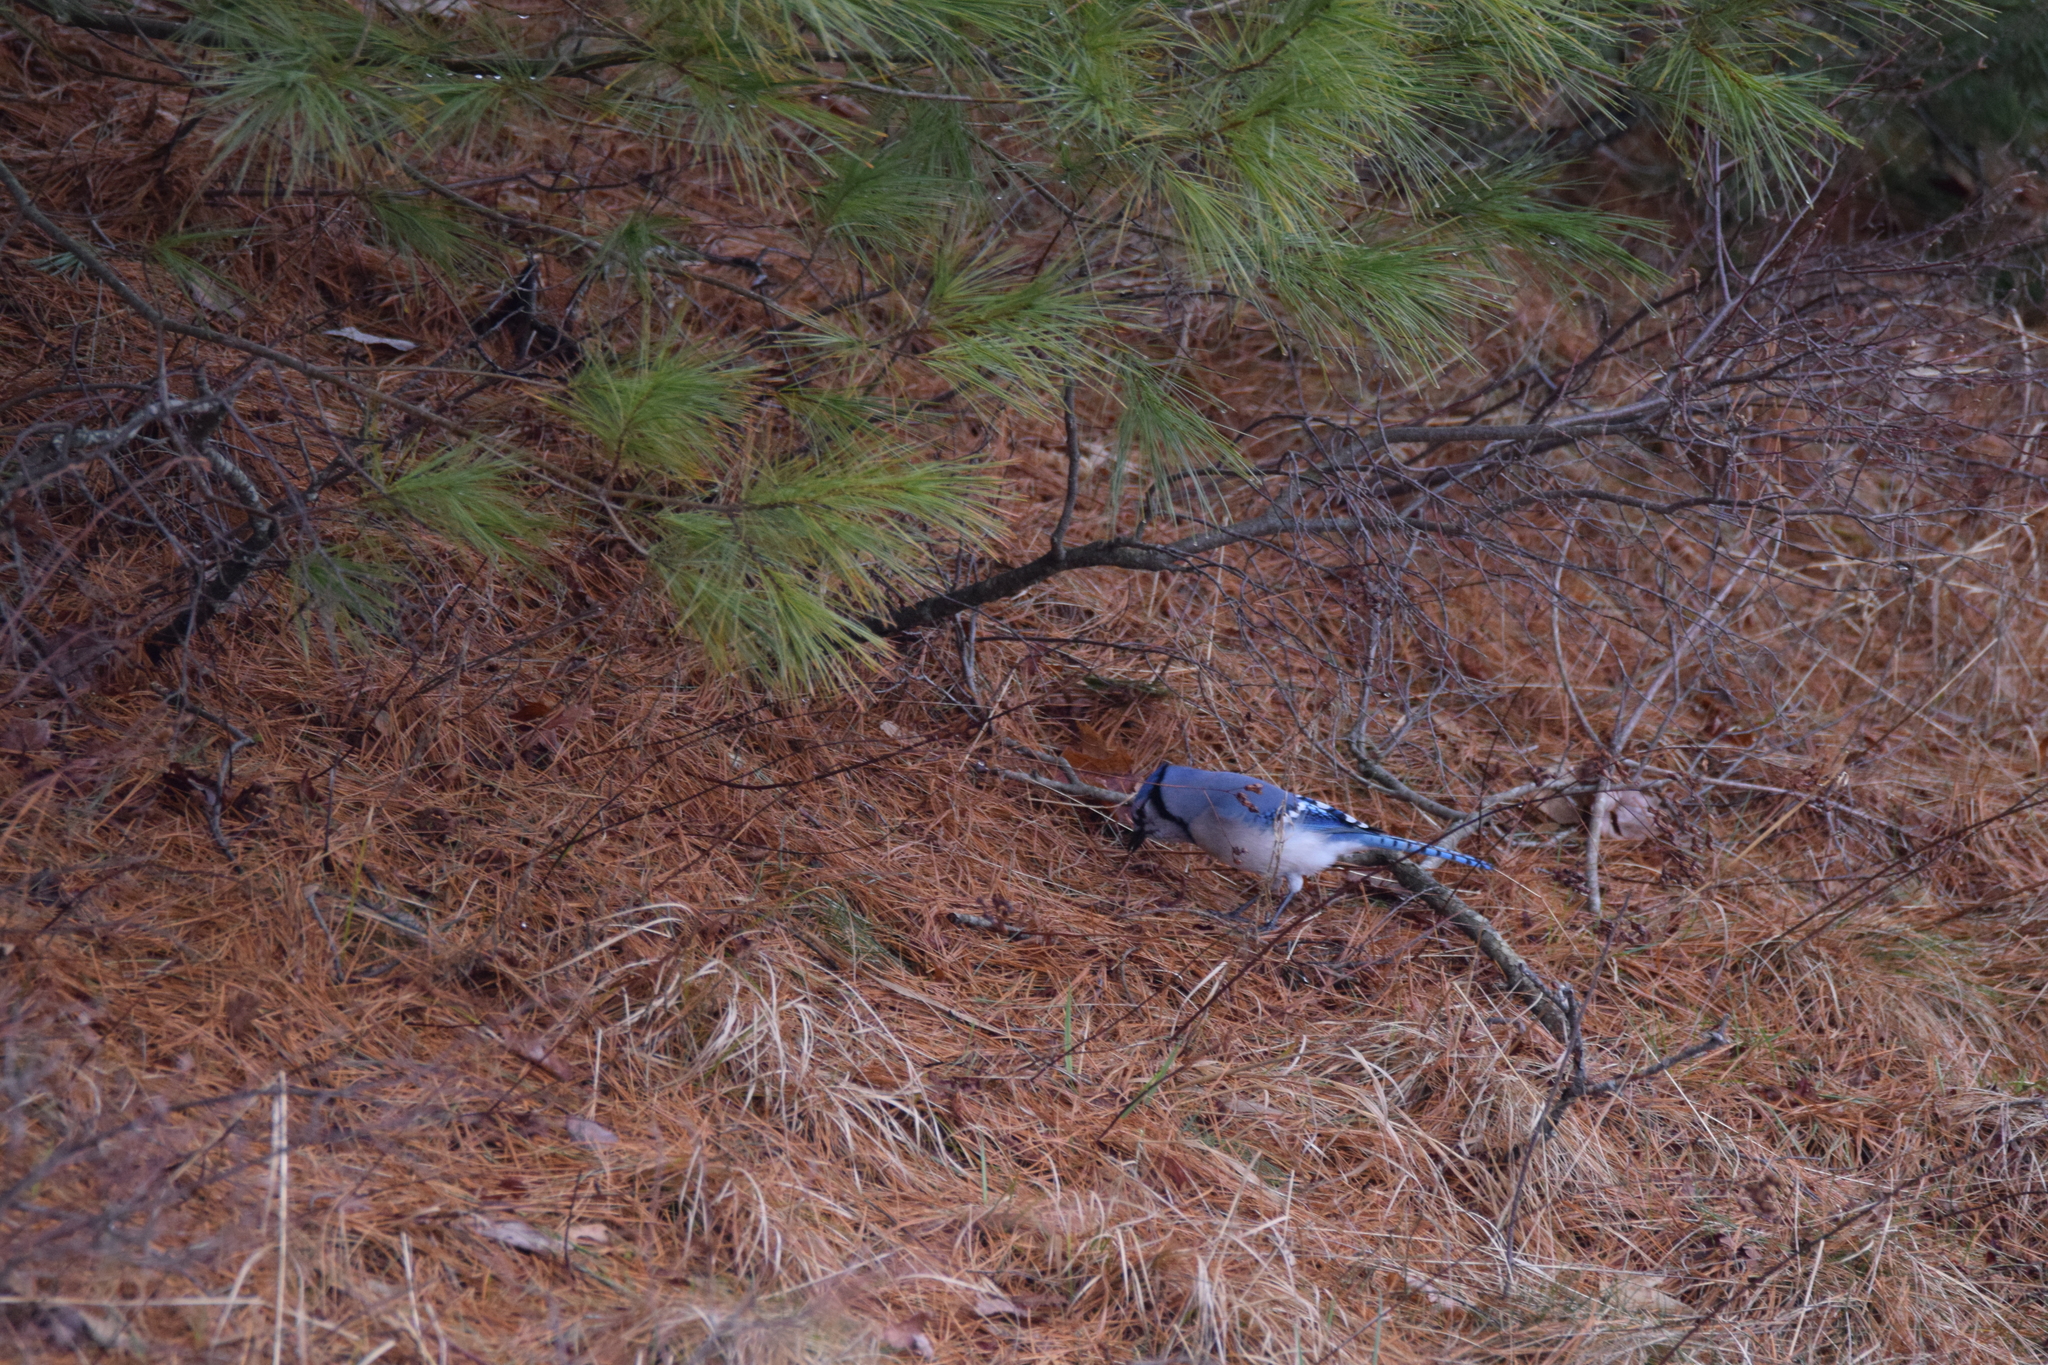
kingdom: Animalia
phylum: Chordata
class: Aves
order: Passeriformes
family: Corvidae
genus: Cyanocitta
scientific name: Cyanocitta cristata
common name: Blue jay
